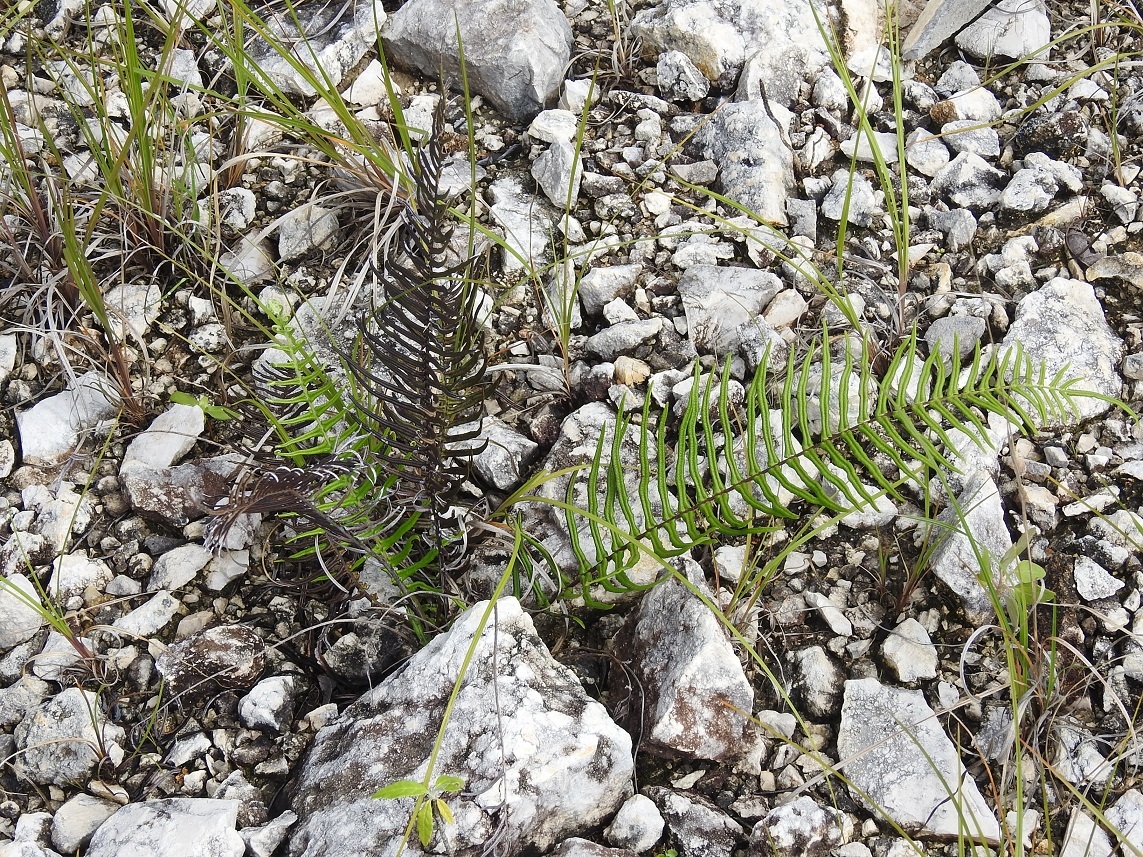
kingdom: Plantae
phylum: Tracheophyta
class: Polypodiopsida
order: Polypodiales
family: Pteridaceae
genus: Pteris
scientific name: Pteris longifolia
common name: Longleaf brake
